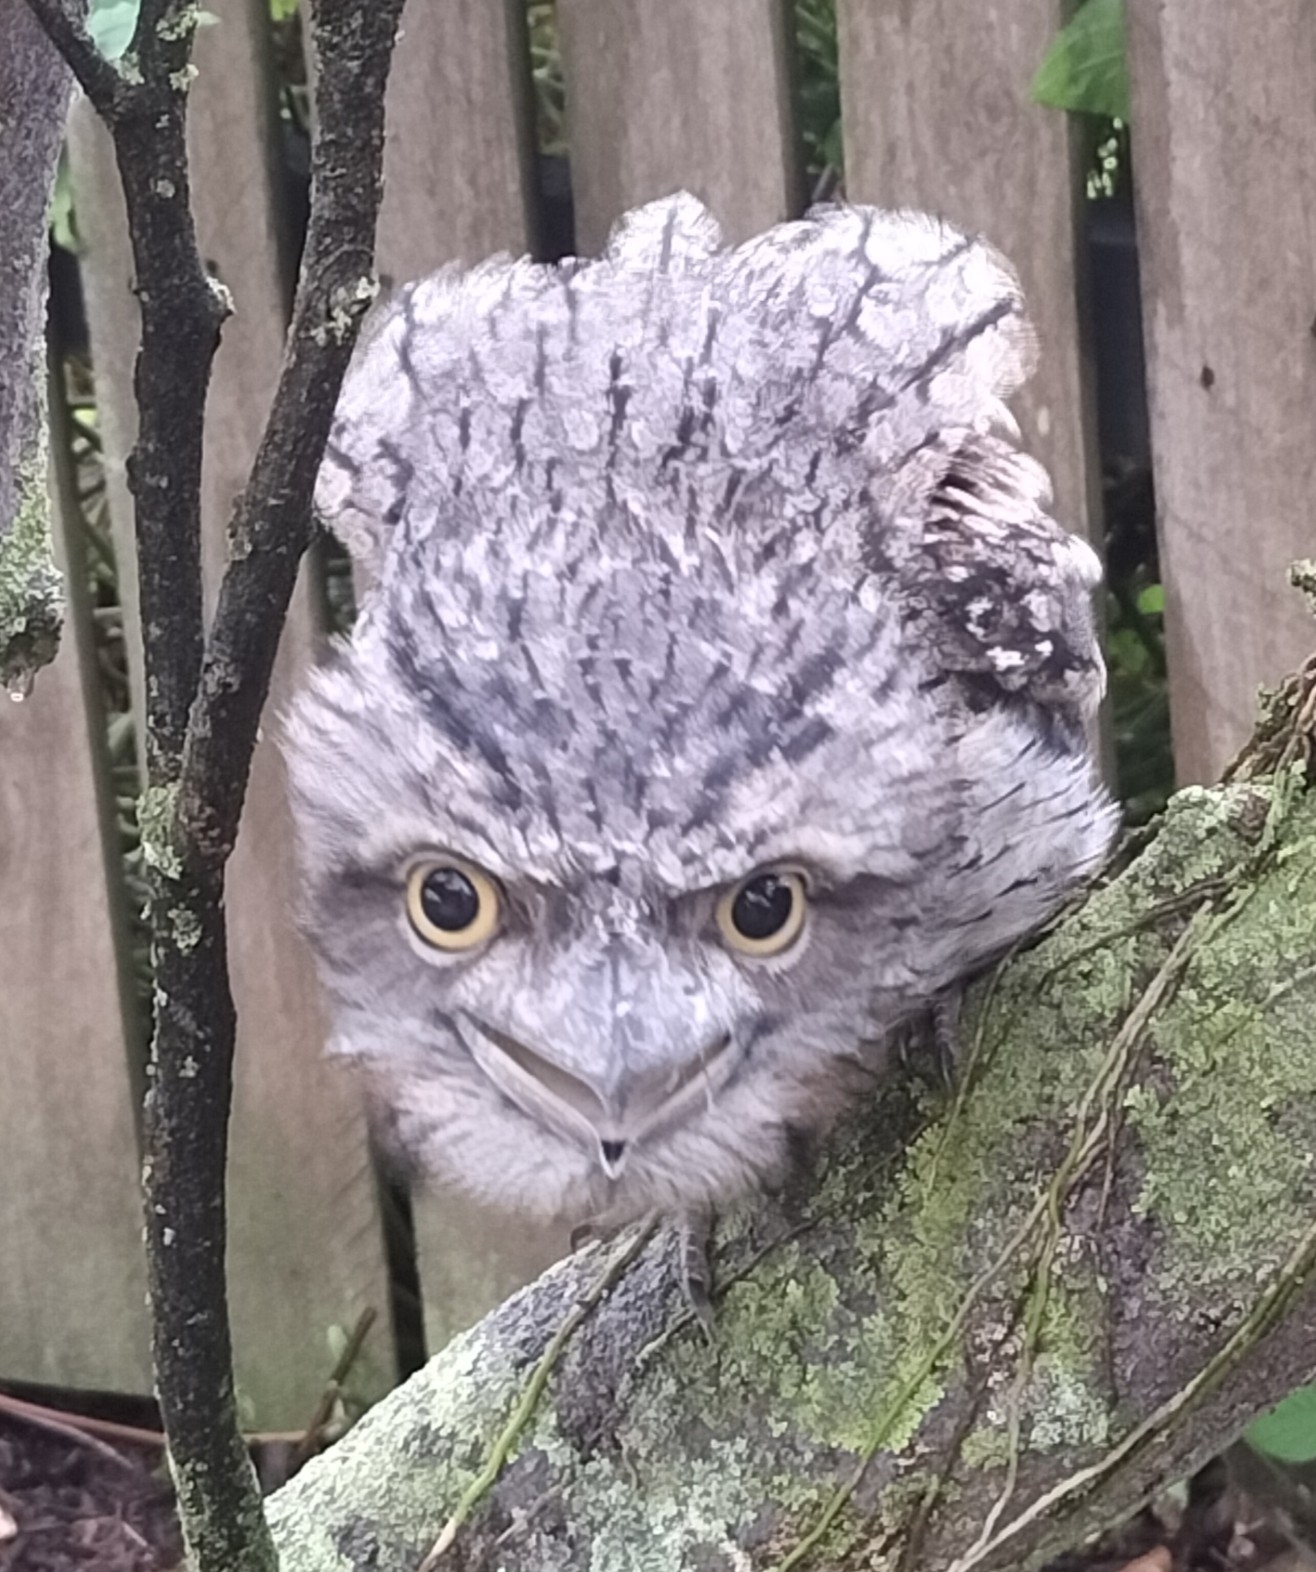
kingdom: Animalia
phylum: Chordata
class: Aves
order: Caprimulgiformes
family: Podargidae
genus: Podargus
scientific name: Podargus strigoides
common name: Tawny frogmouth
